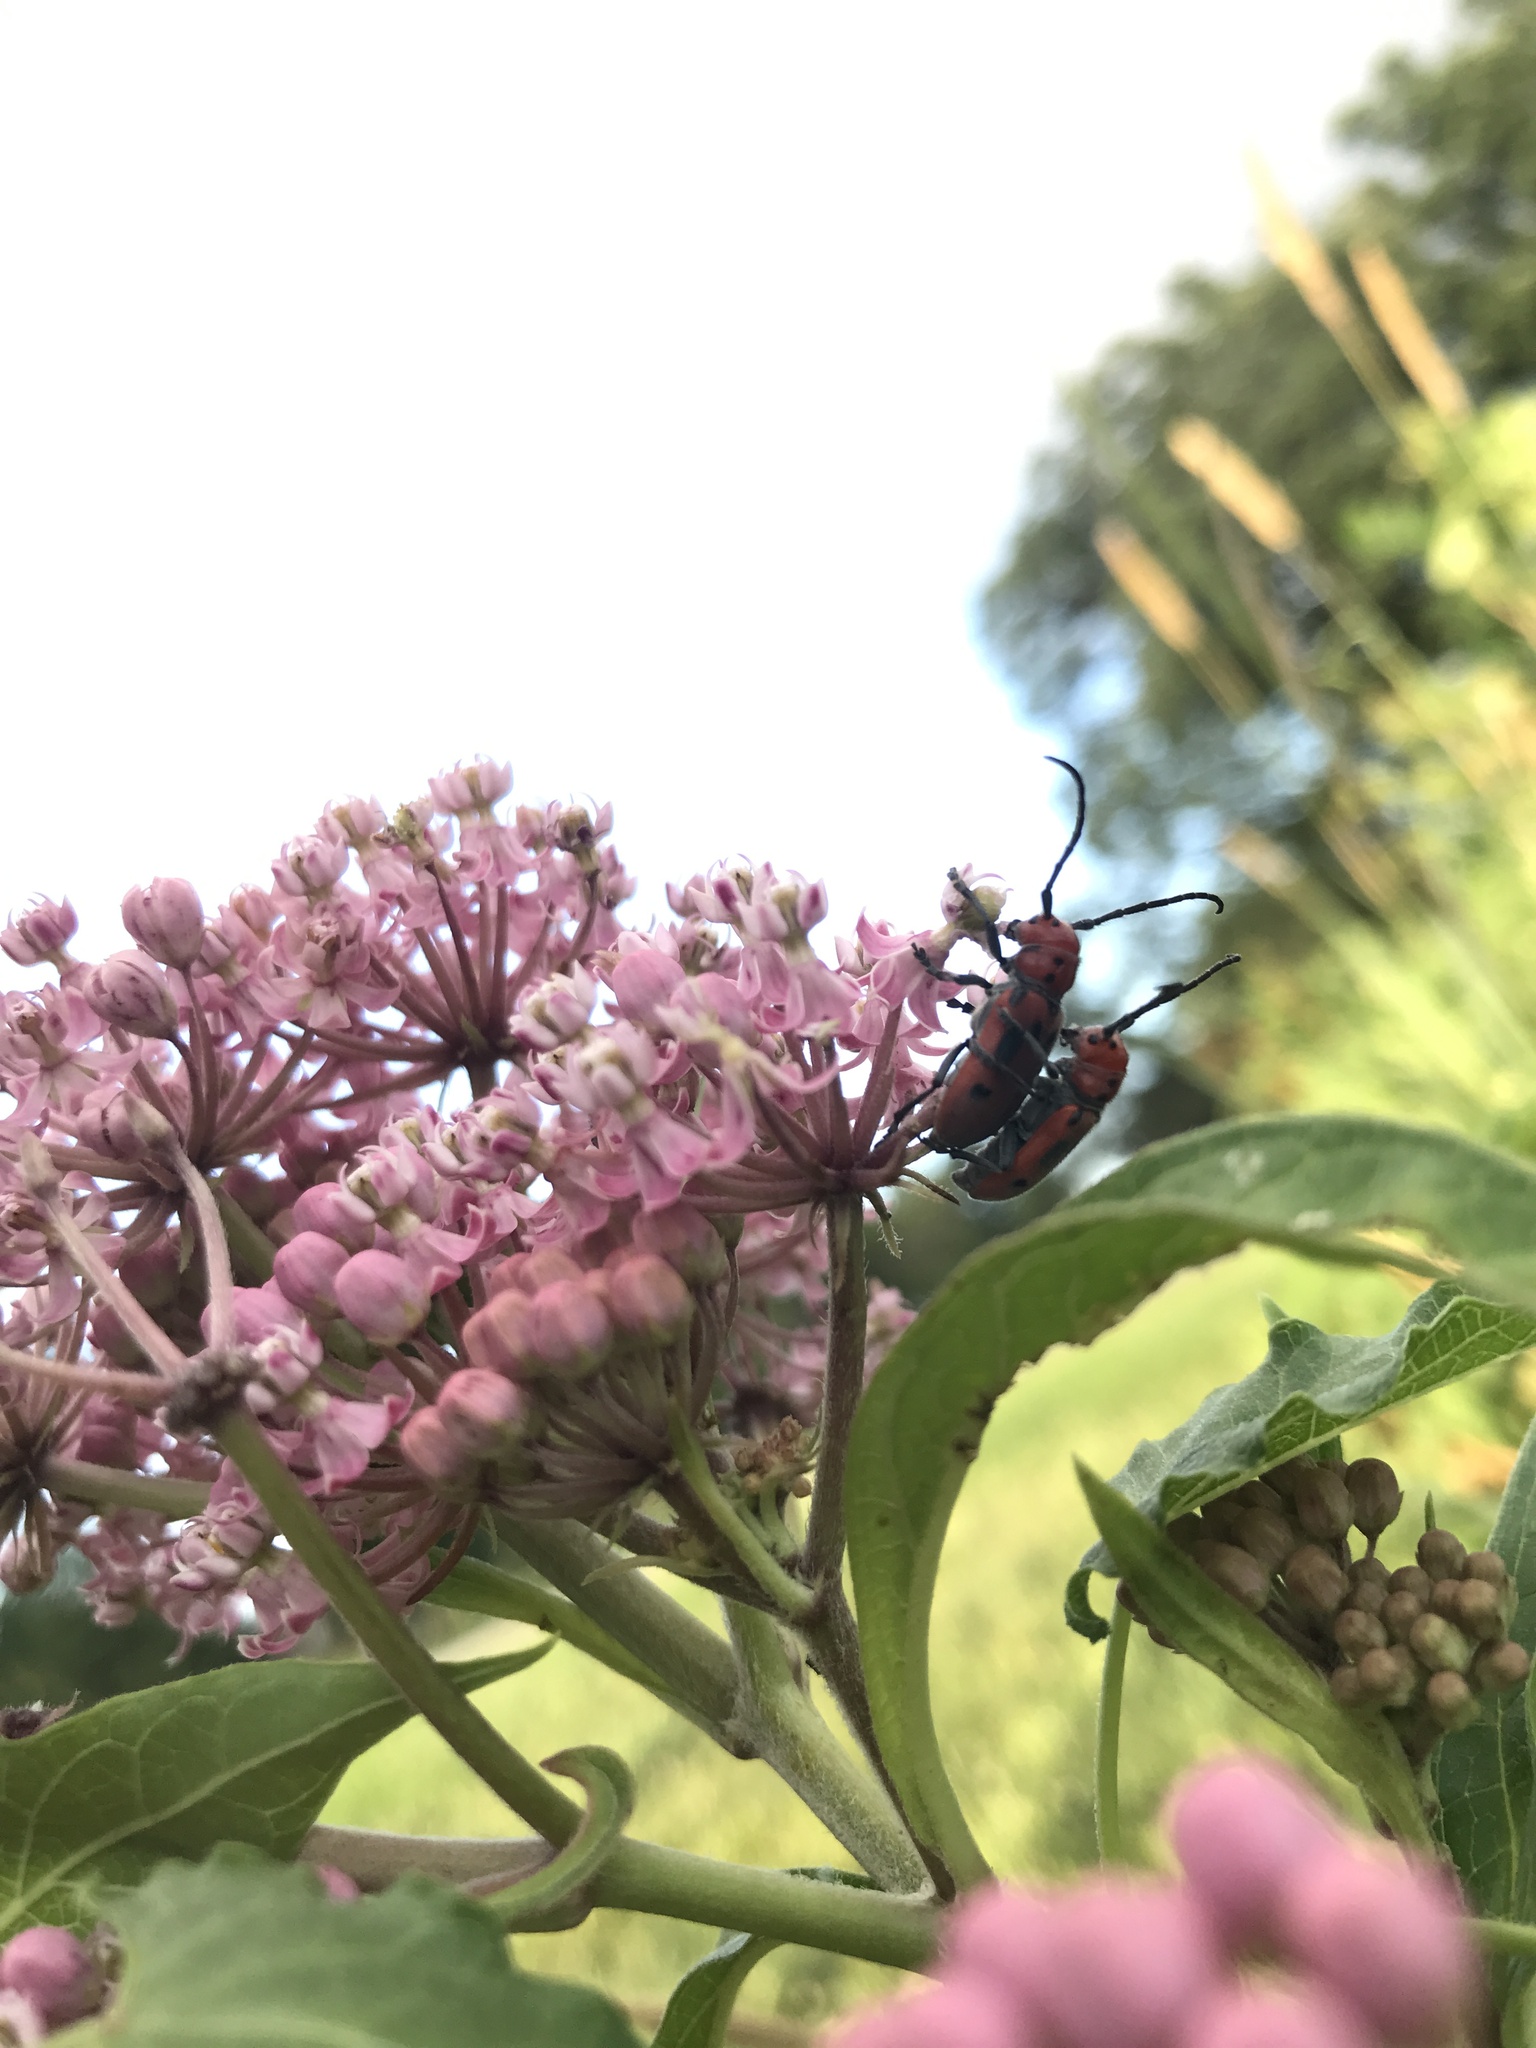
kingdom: Animalia
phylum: Arthropoda
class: Insecta
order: Coleoptera
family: Cerambycidae
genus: Tetraopes
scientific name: Tetraopes tetrophthalmus
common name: Red milkweed beetle
